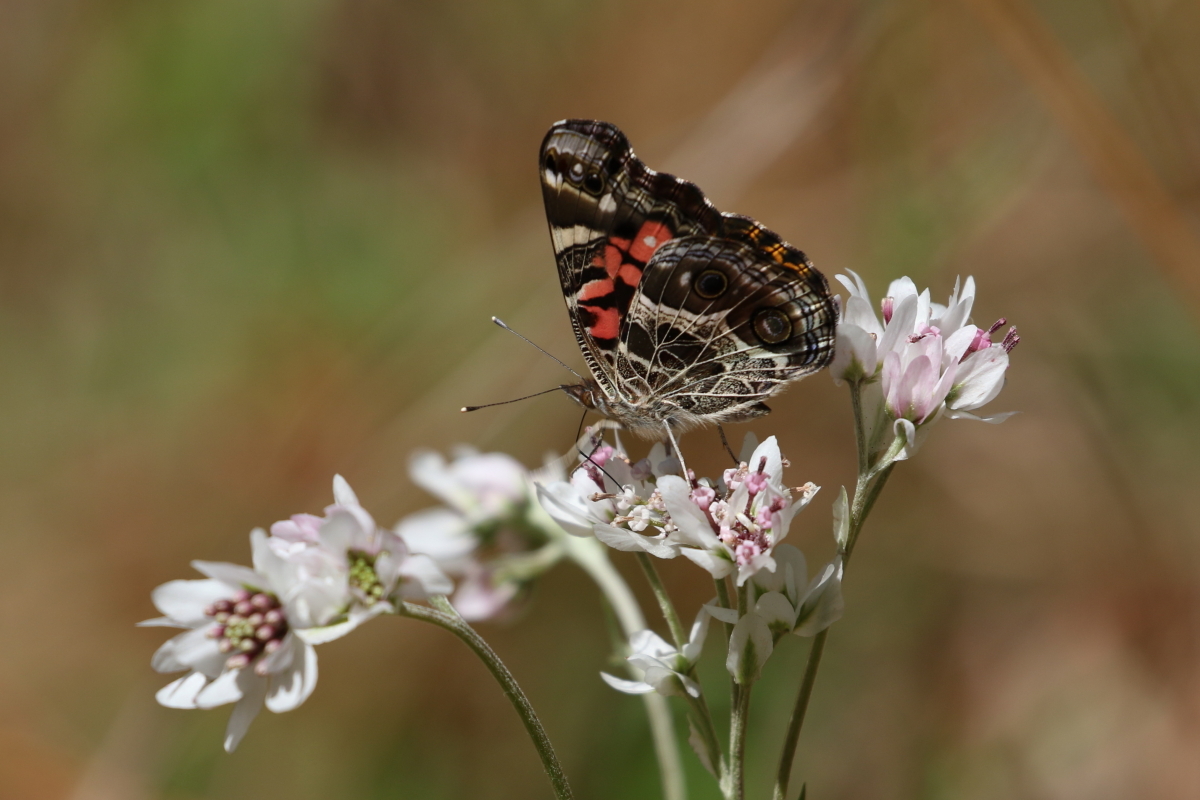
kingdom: Animalia
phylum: Arthropoda
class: Insecta
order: Lepidoptera
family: Nymphalidae
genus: Vanessa
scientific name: Vanessa virginiensis
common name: American lady
